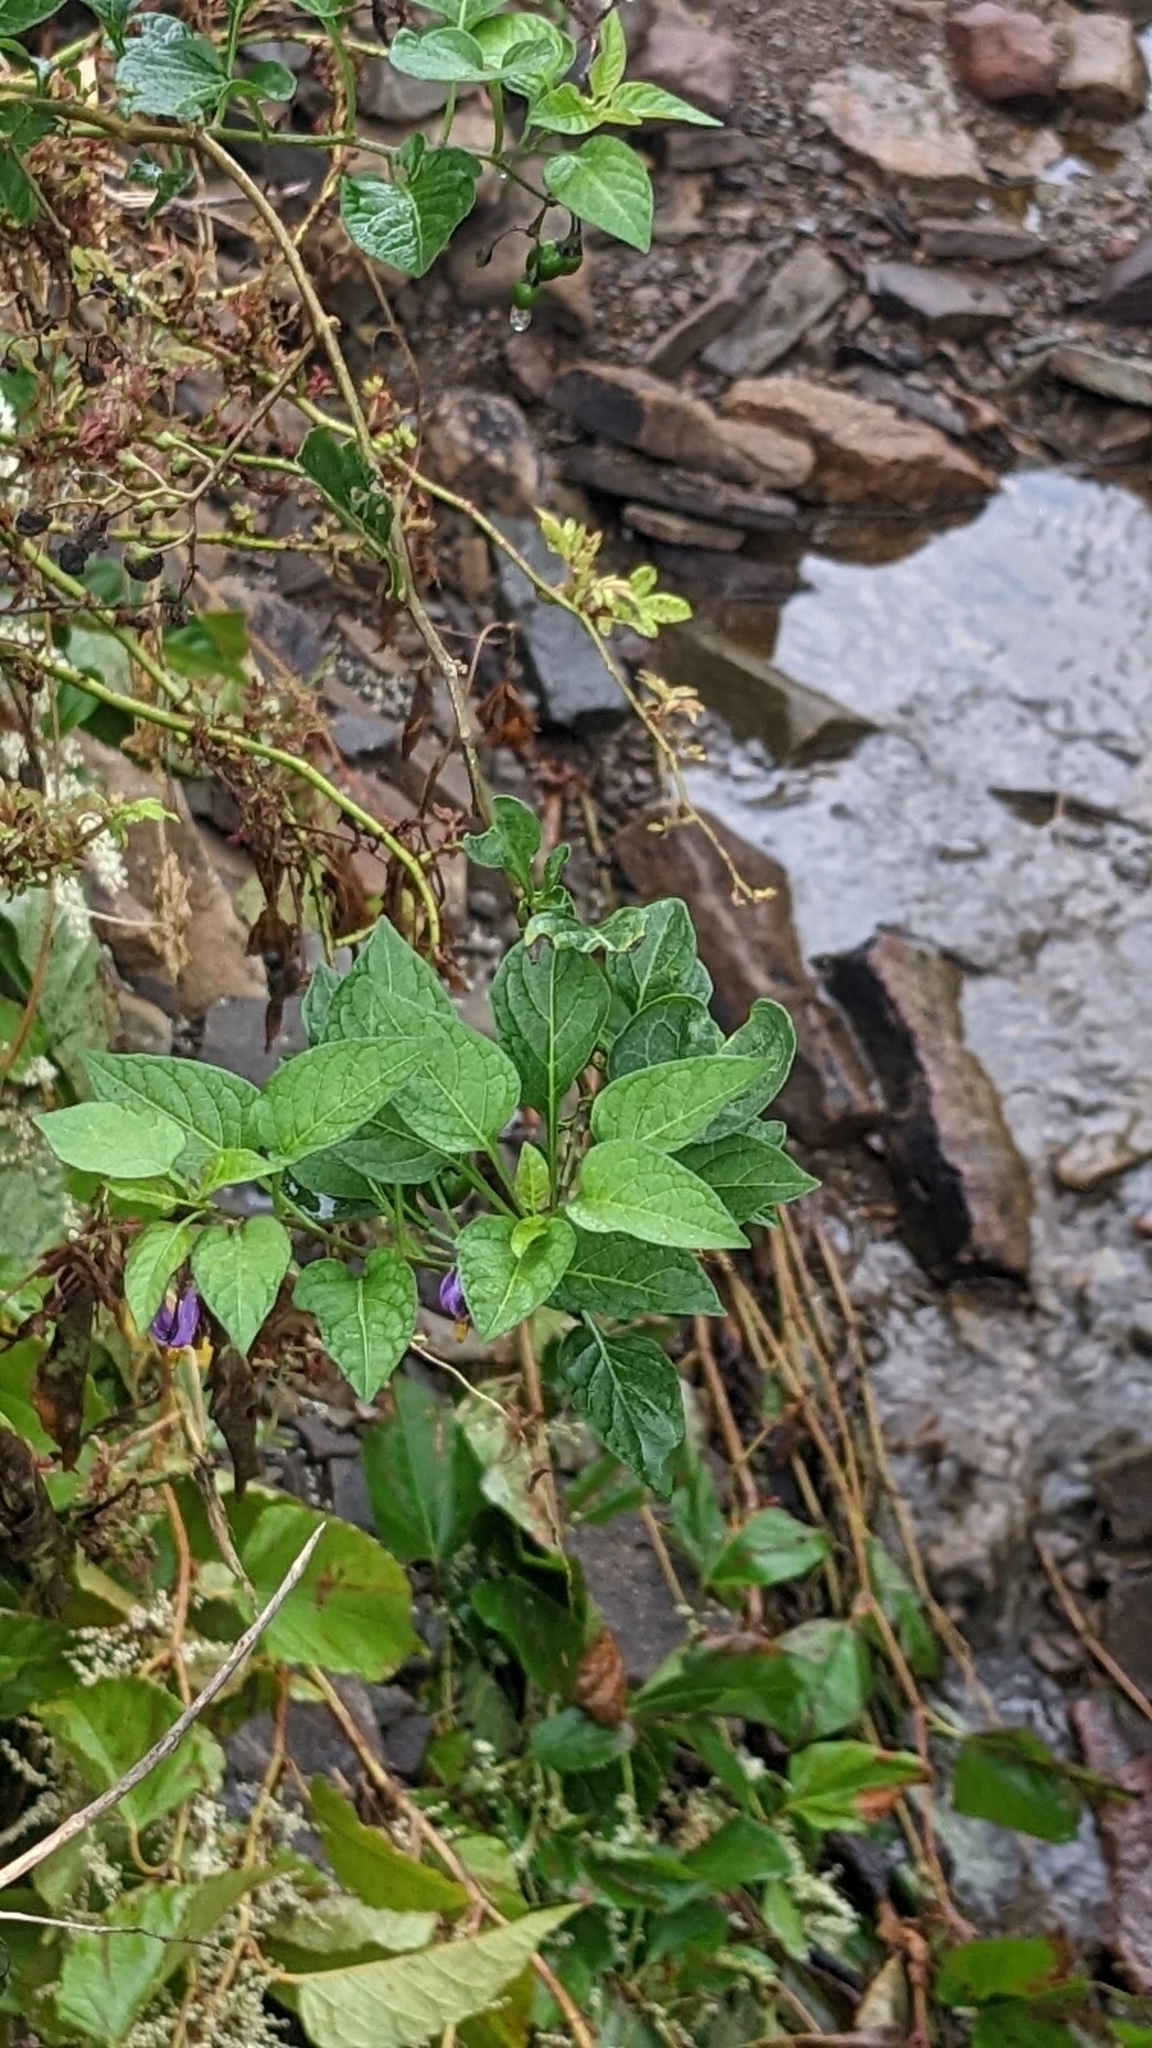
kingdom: Plantae
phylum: Tracheophyta
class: Magnoliopsida
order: Solanales
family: Solanaceae
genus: Solanum
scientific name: Solanum dulcamara
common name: Climbing nightshade
